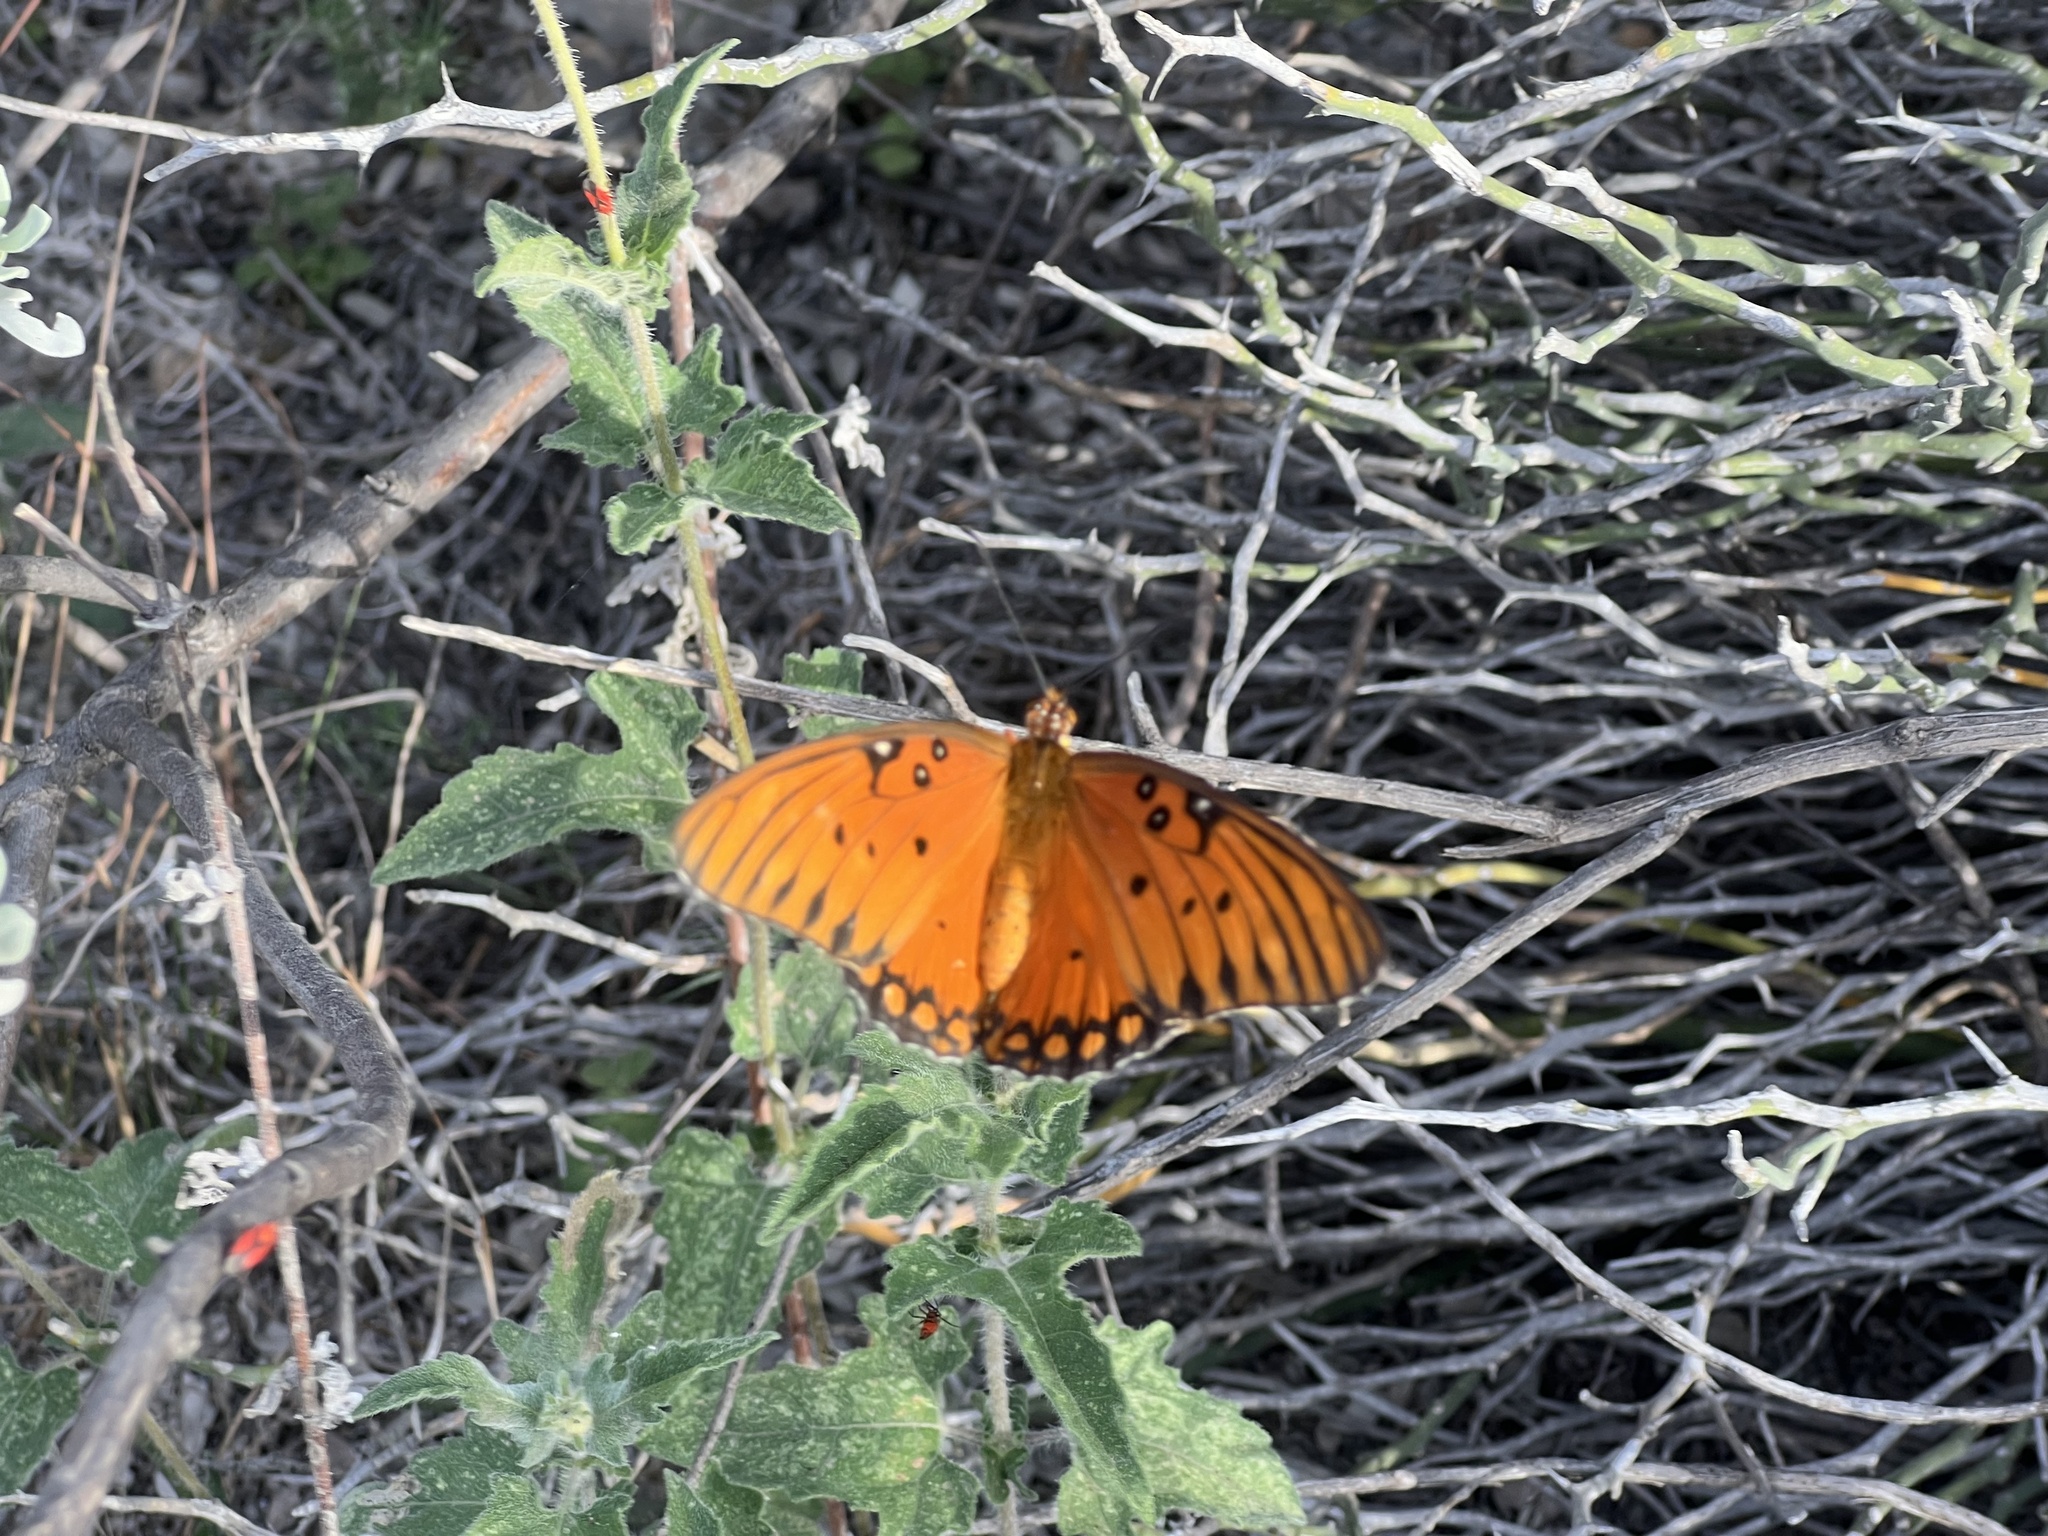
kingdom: Animalia
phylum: Arthropoda
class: Insecta
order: Lepidoptera
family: Nymphalidae
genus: Dione
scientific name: Dione vanillae
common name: Gulf fritillary
